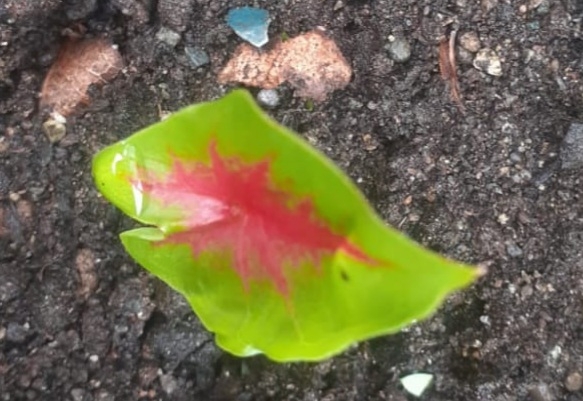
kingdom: Plantae
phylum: Tracheophyta
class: Liliopsida
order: Alismatales
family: Araceae
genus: Caladium
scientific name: Caladium bicolor
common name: Artist's pallet
